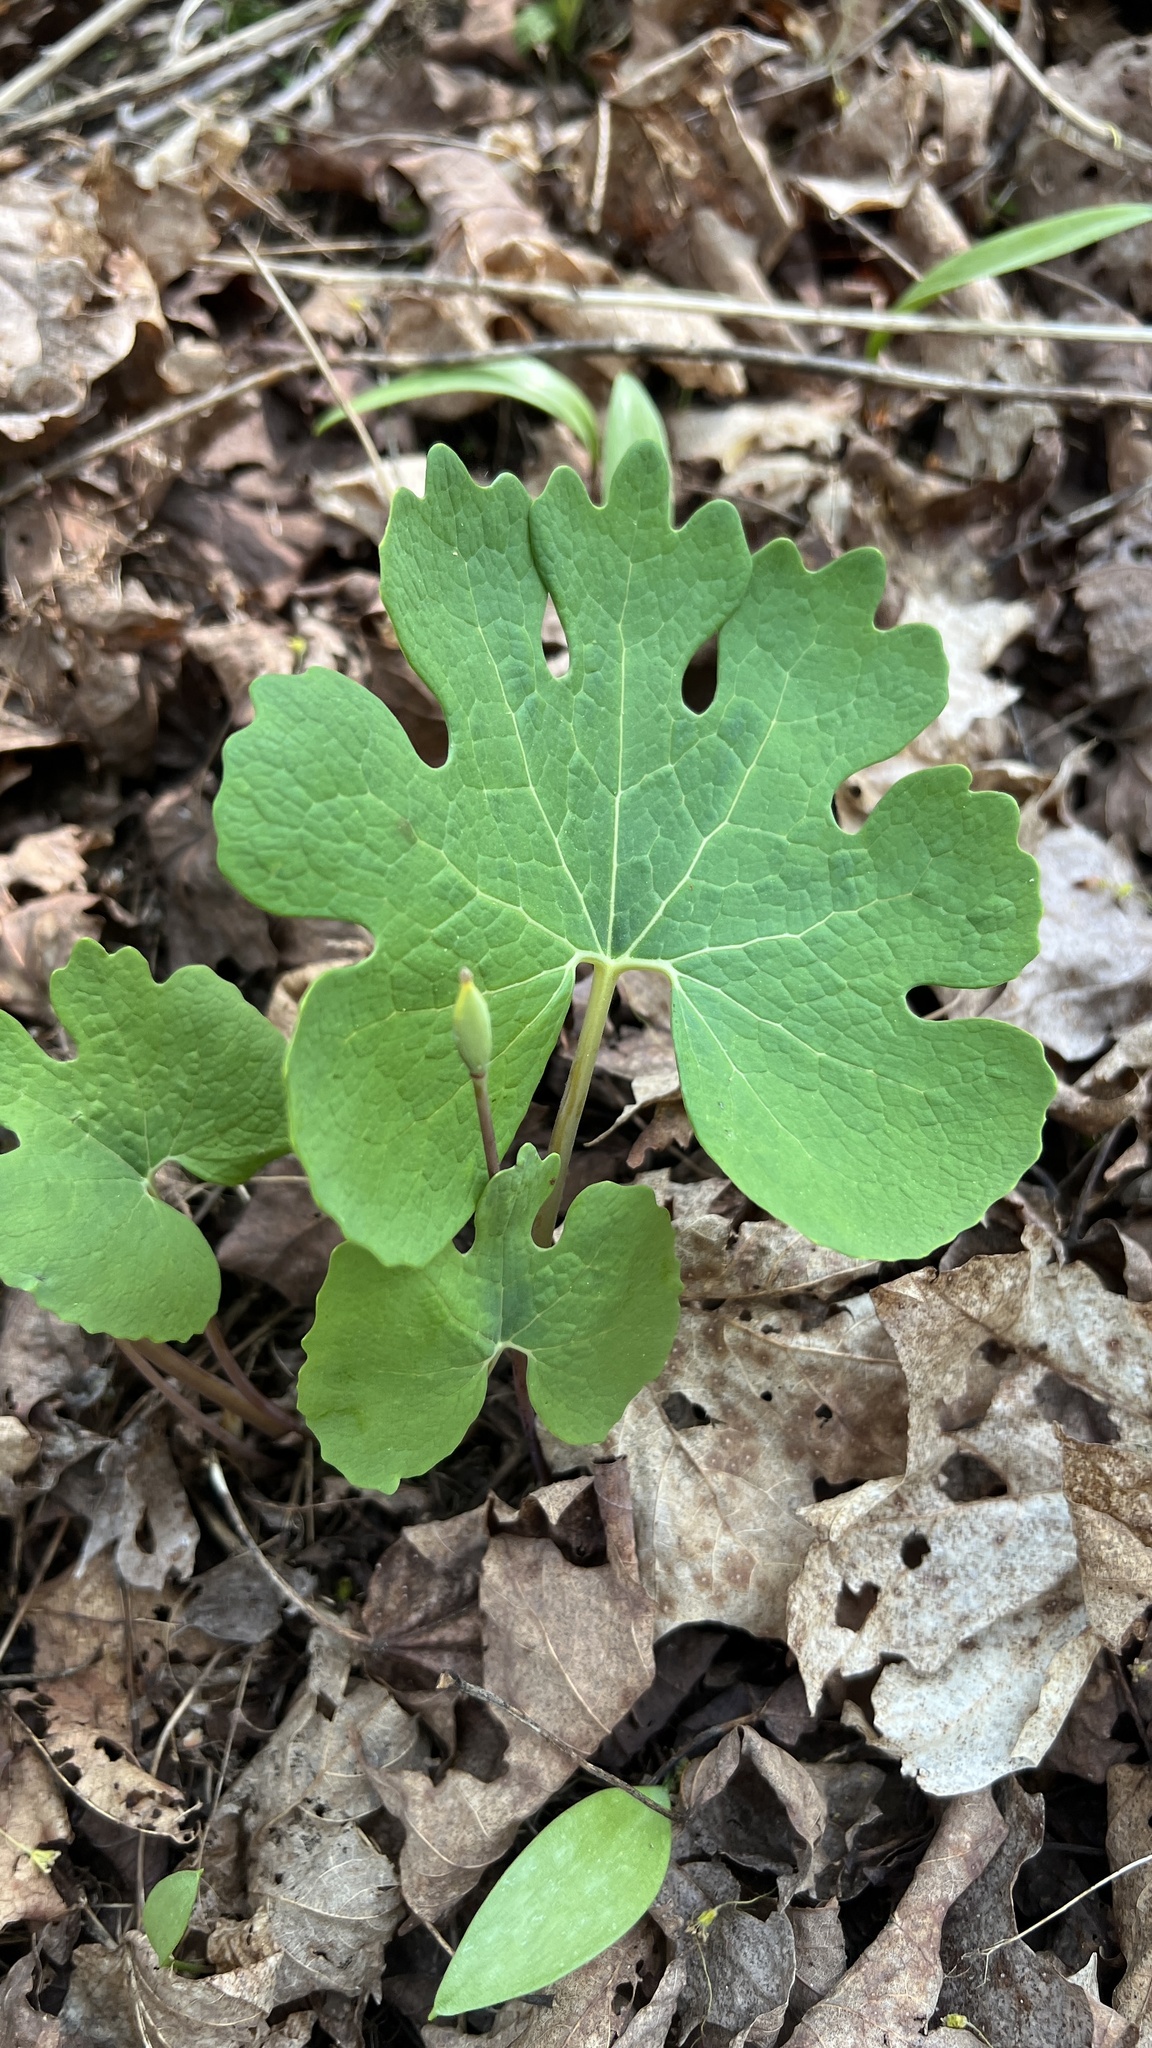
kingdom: Plantae
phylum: Tracheophyta
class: Magnoliopsida
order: Ranunculales
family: Papaveraceae
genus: Sanguinaria
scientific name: Sanguinaria canadensis
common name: Bloodroot
